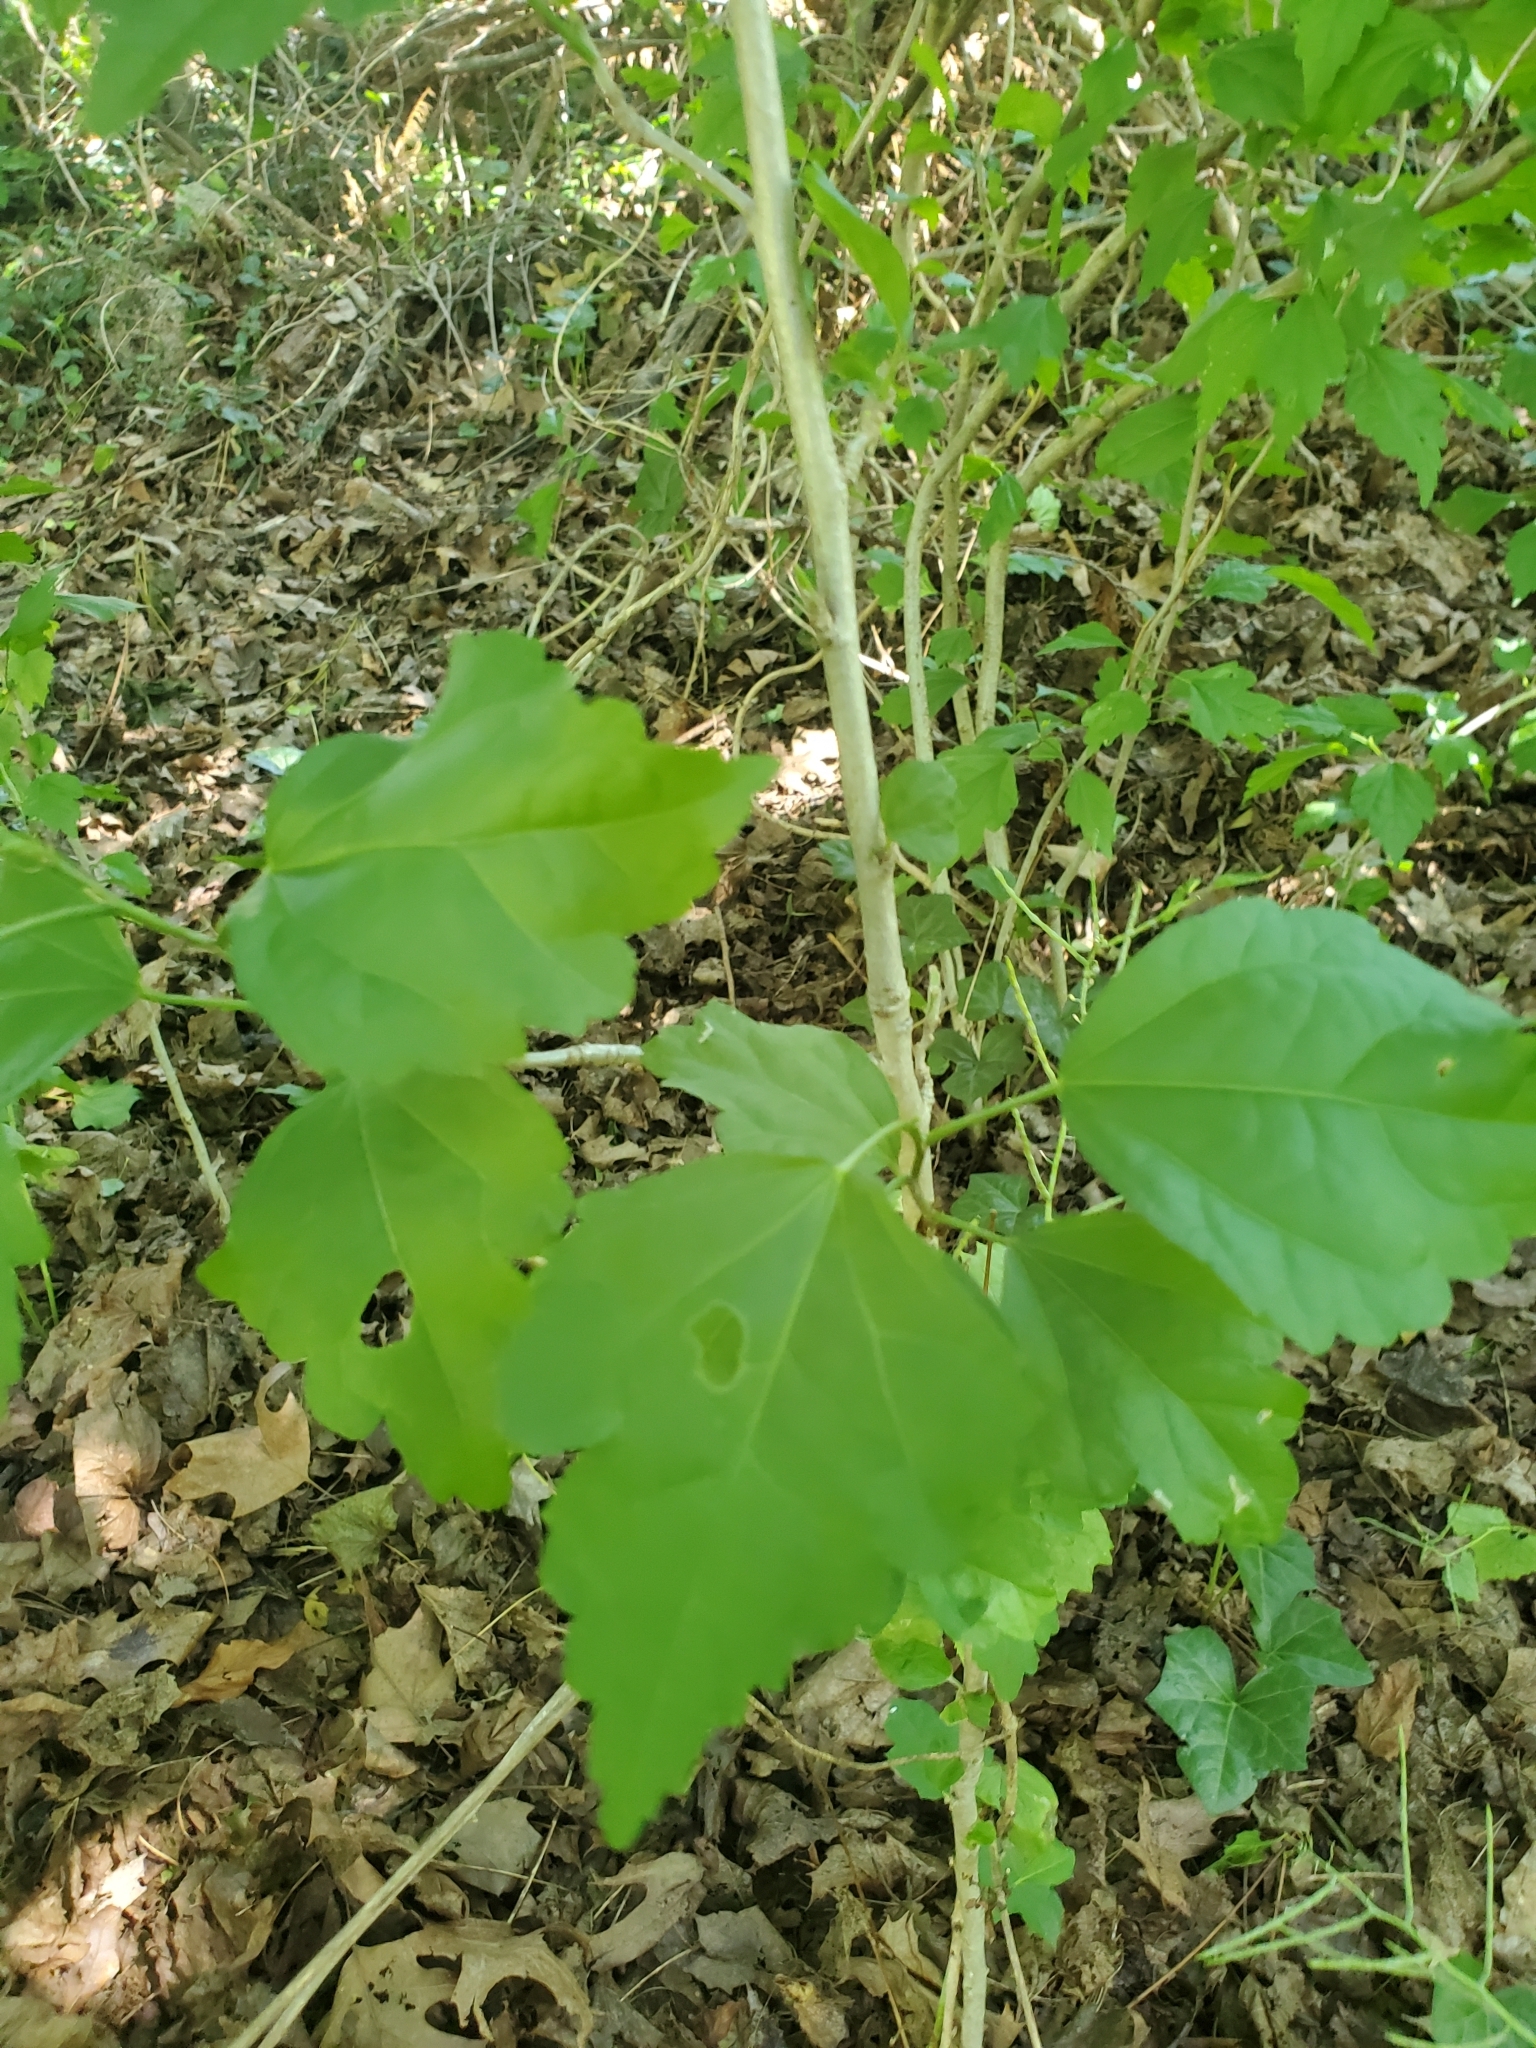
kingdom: Plantae
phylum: Tracheophyta
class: Magnoliopsida
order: Malvales
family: Malvaceae
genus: Hibiscus
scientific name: Hibiscus syriacus
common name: Syrian ketmia
